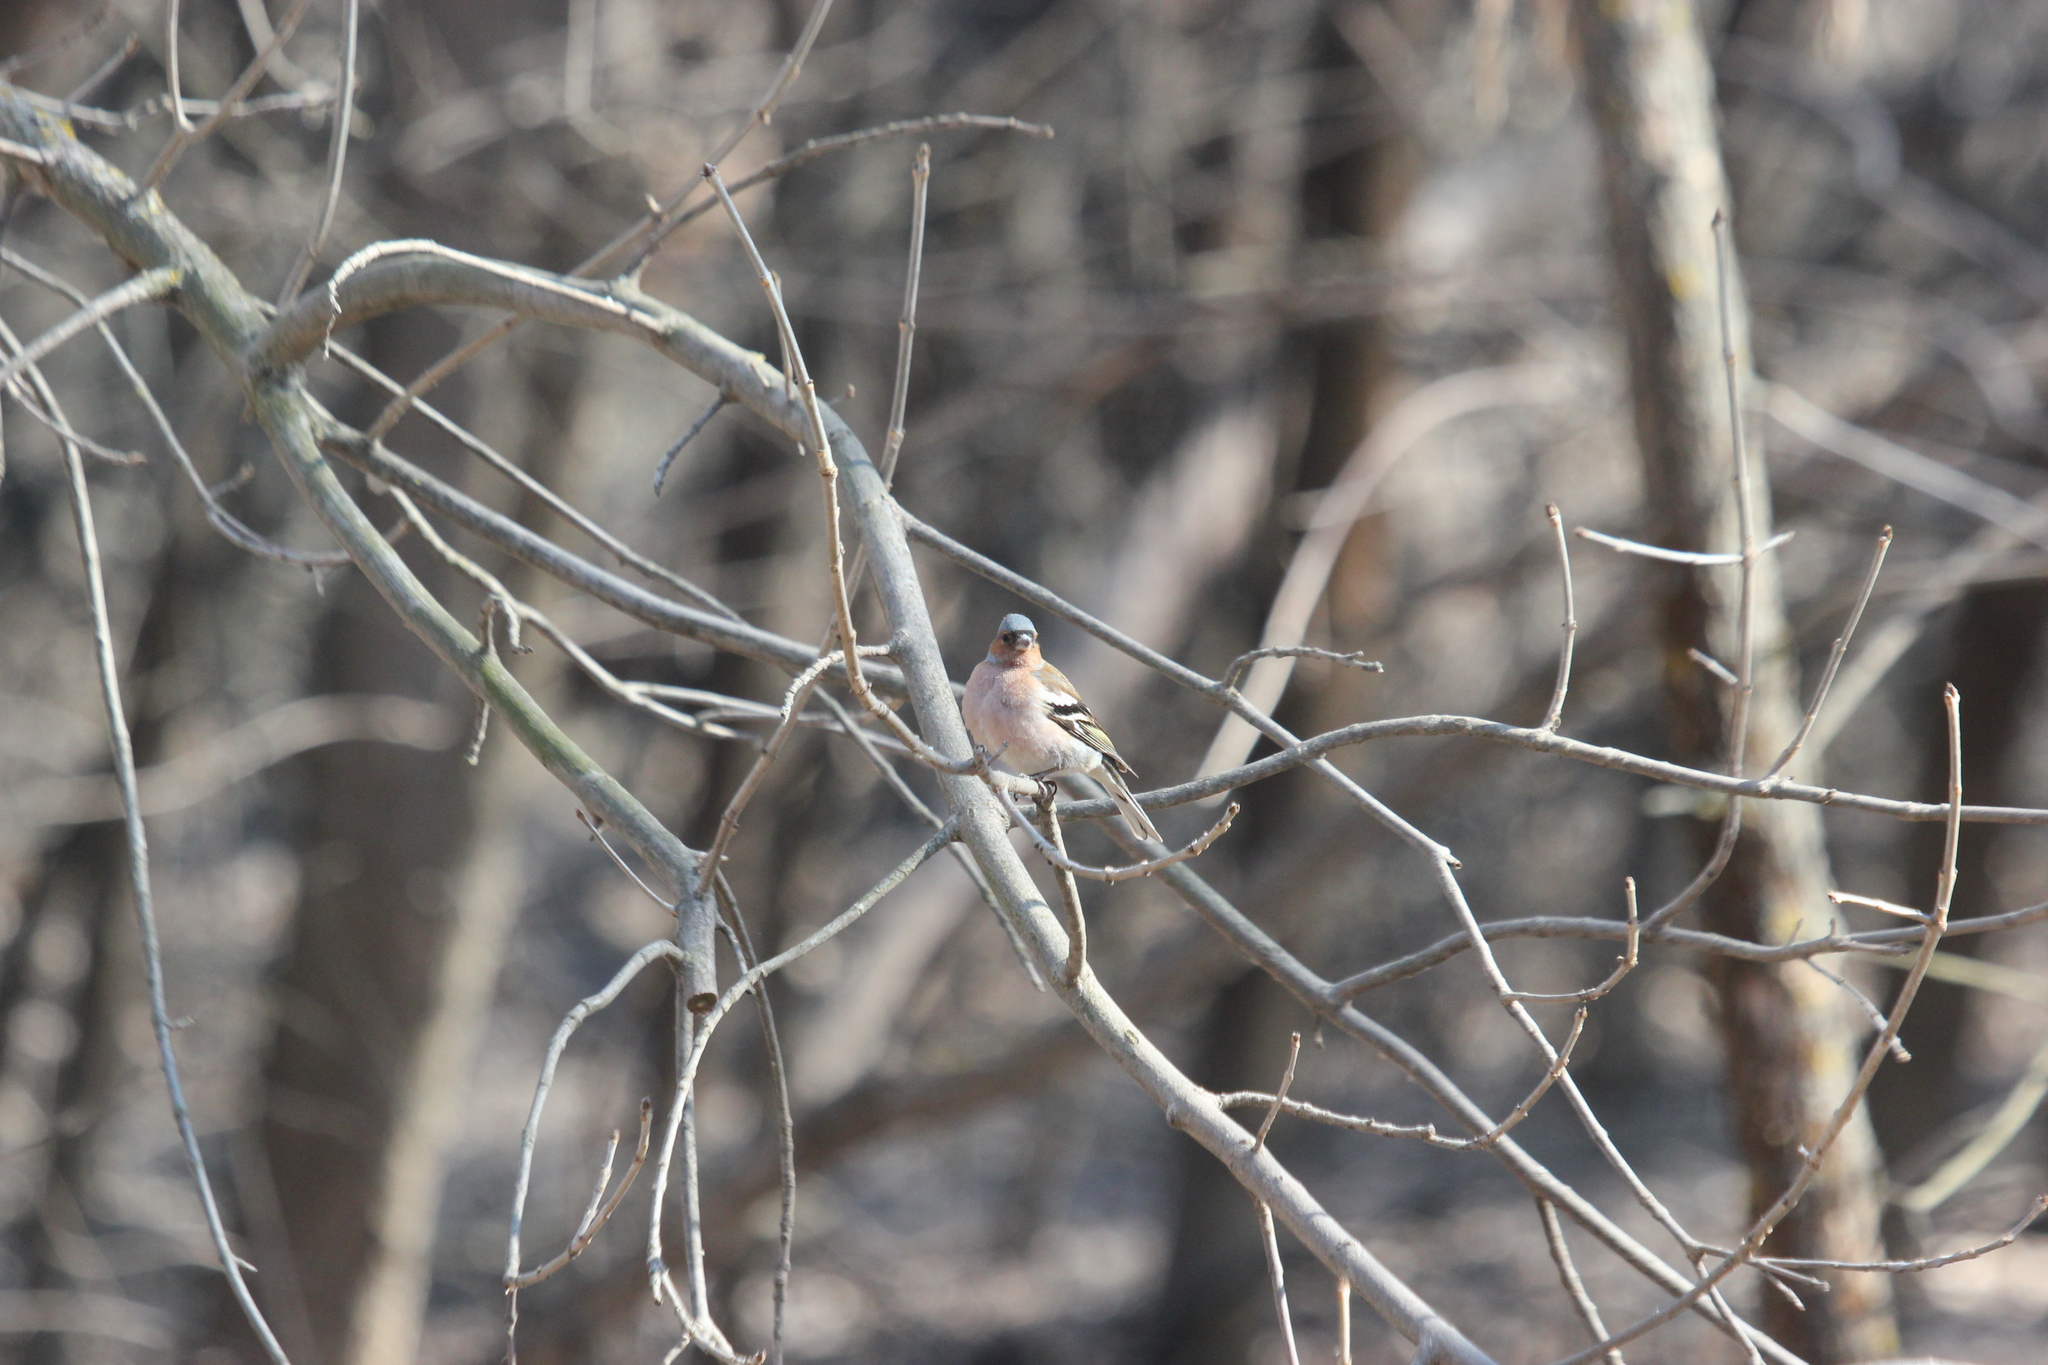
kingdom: Animalia
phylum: Chordata
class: Aves
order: Passeriformes
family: Fringillidae
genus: Fringilla
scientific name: Fringilla coelebs
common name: Common chaffinch
